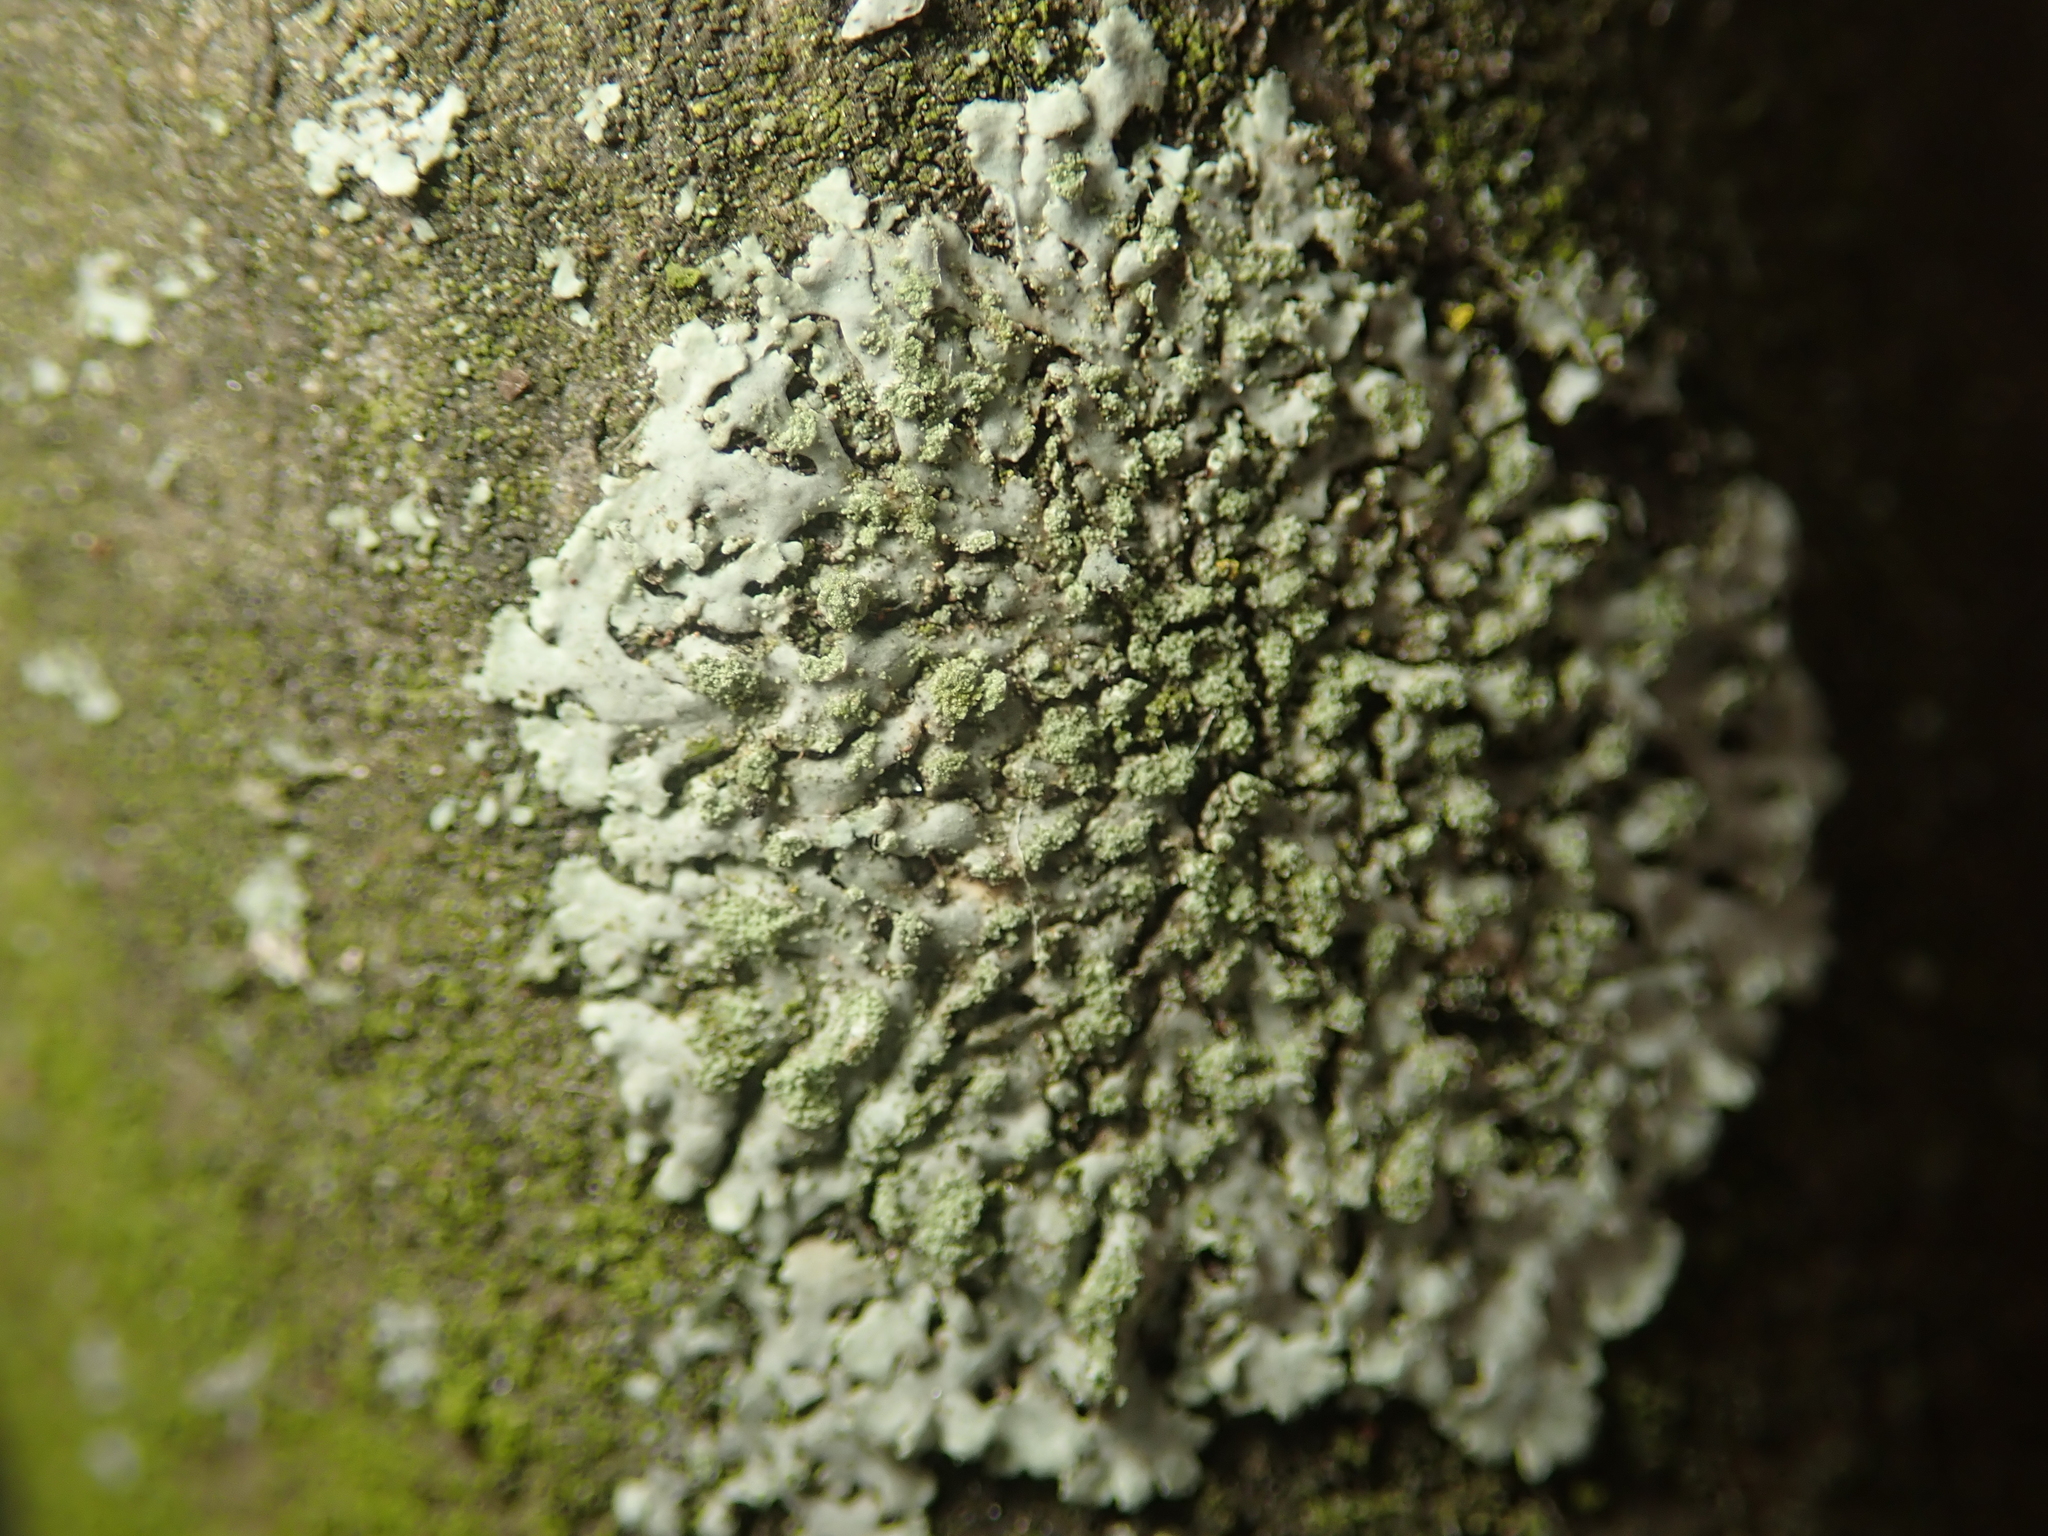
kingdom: Fungi
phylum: Ascomycota
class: Lecanoromycetes
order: Caliciales
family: Physciaceae
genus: Phaeophyscia
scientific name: Phaeophyscia orbicularis
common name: Mealy shadow lichen
